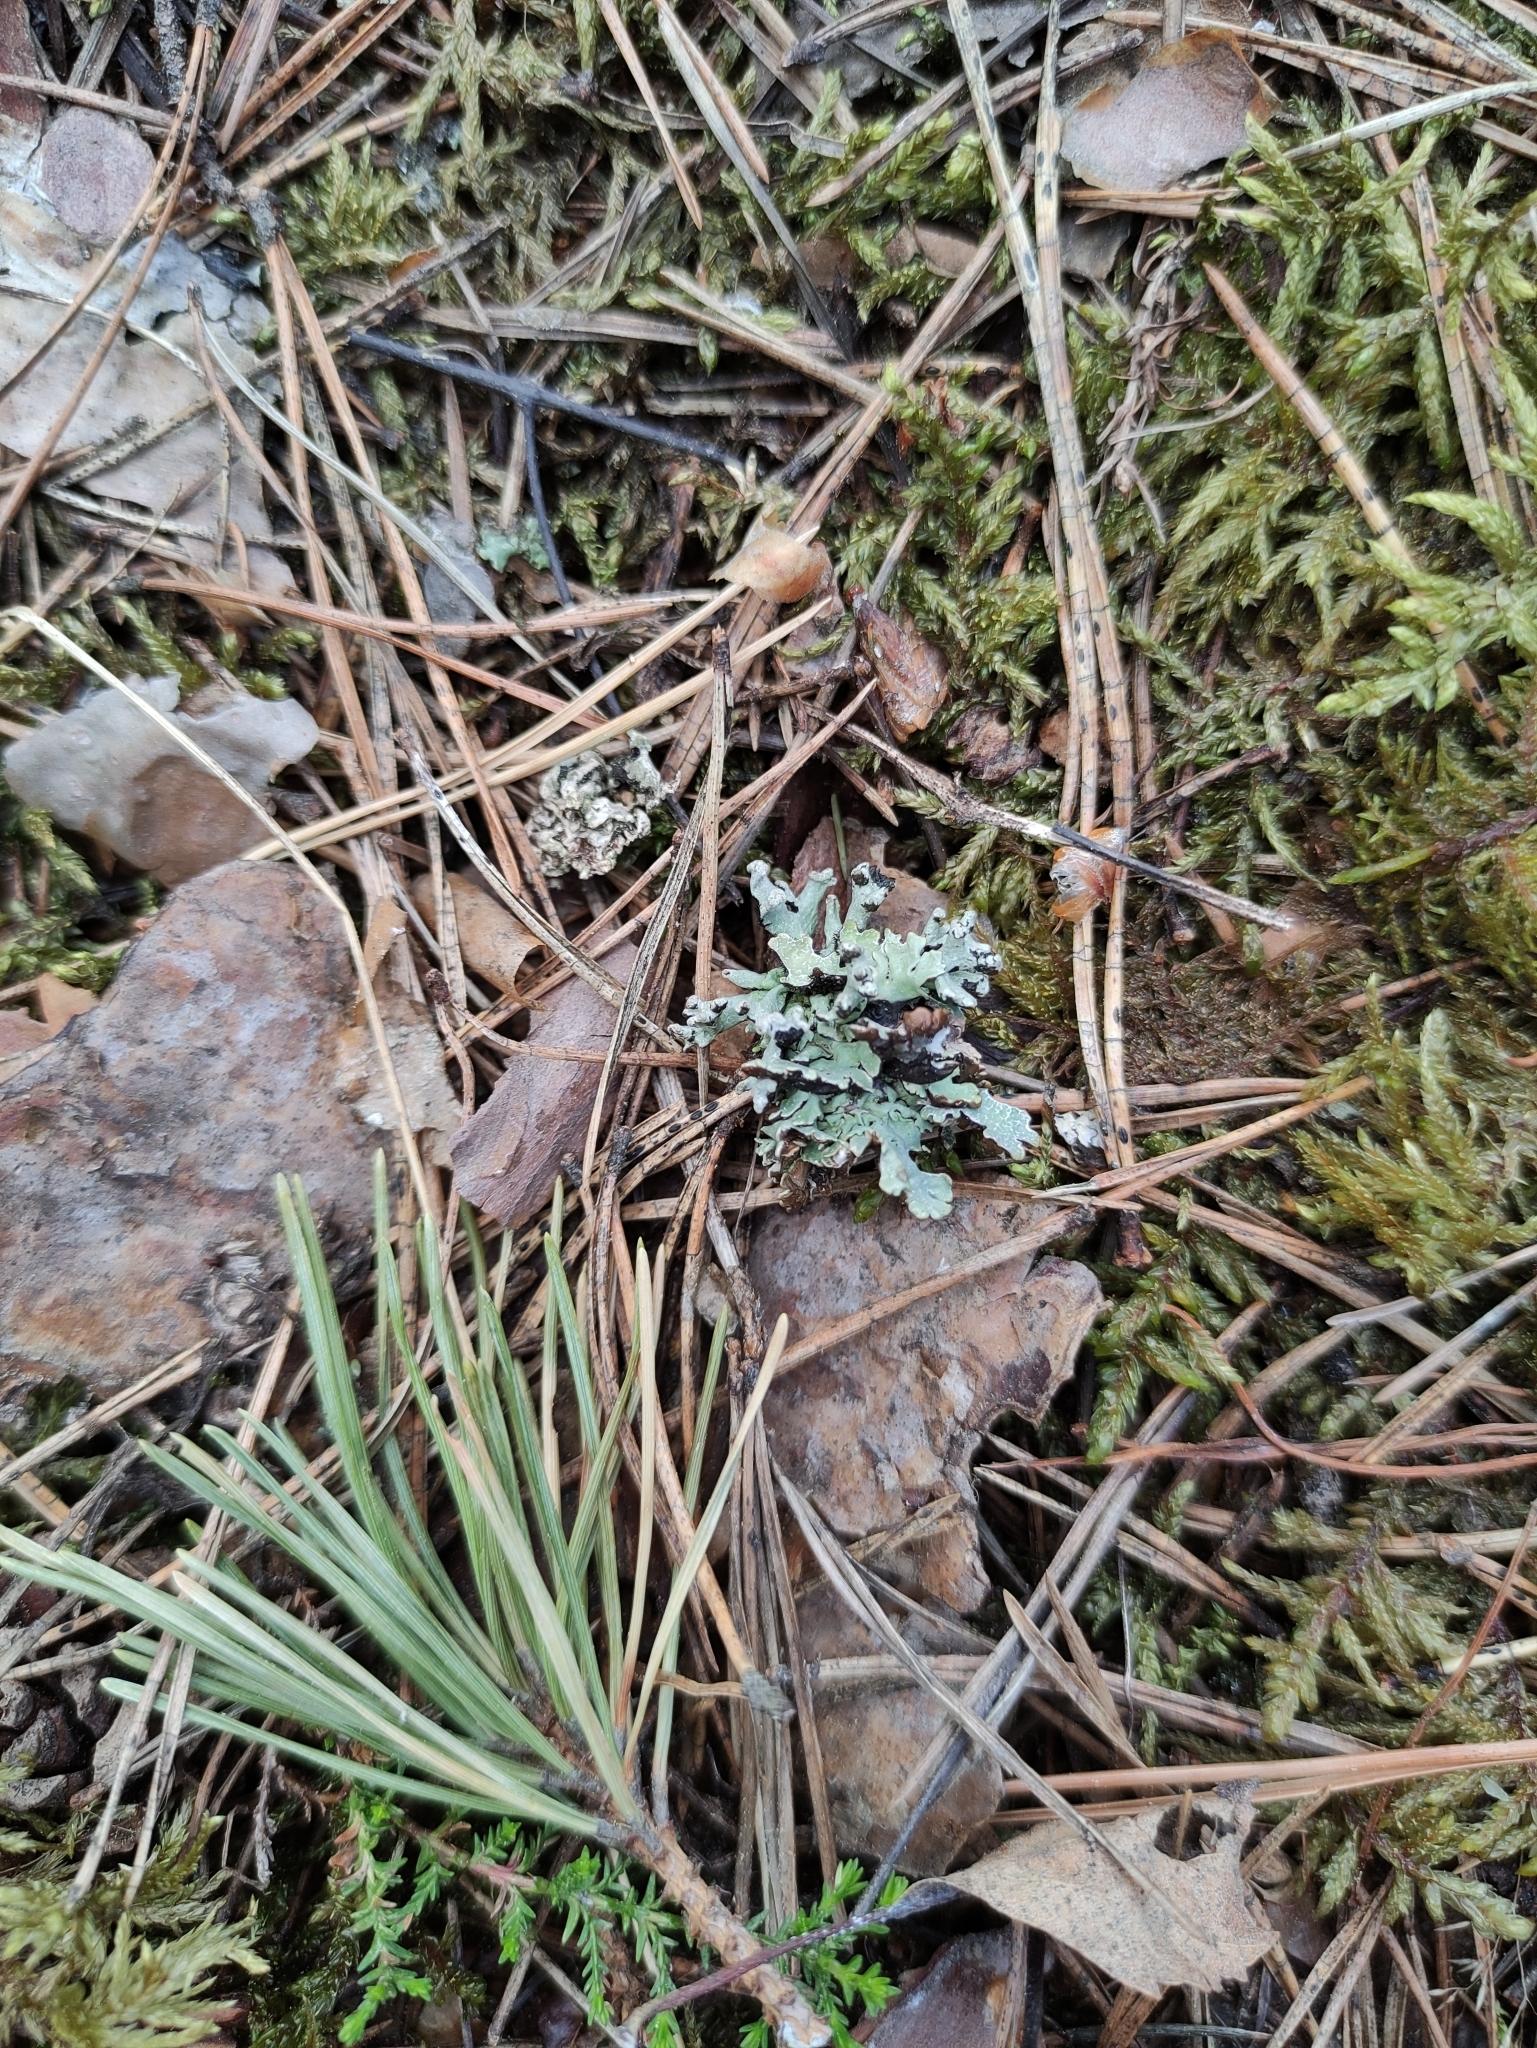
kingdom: Fungi
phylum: Ascomycota
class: Lecanoromycetes
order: Lecanorales
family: Parmeliaceae
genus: Hypogymnia
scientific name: Hypogymnia tubulosa
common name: Powder-headed tube lichen
